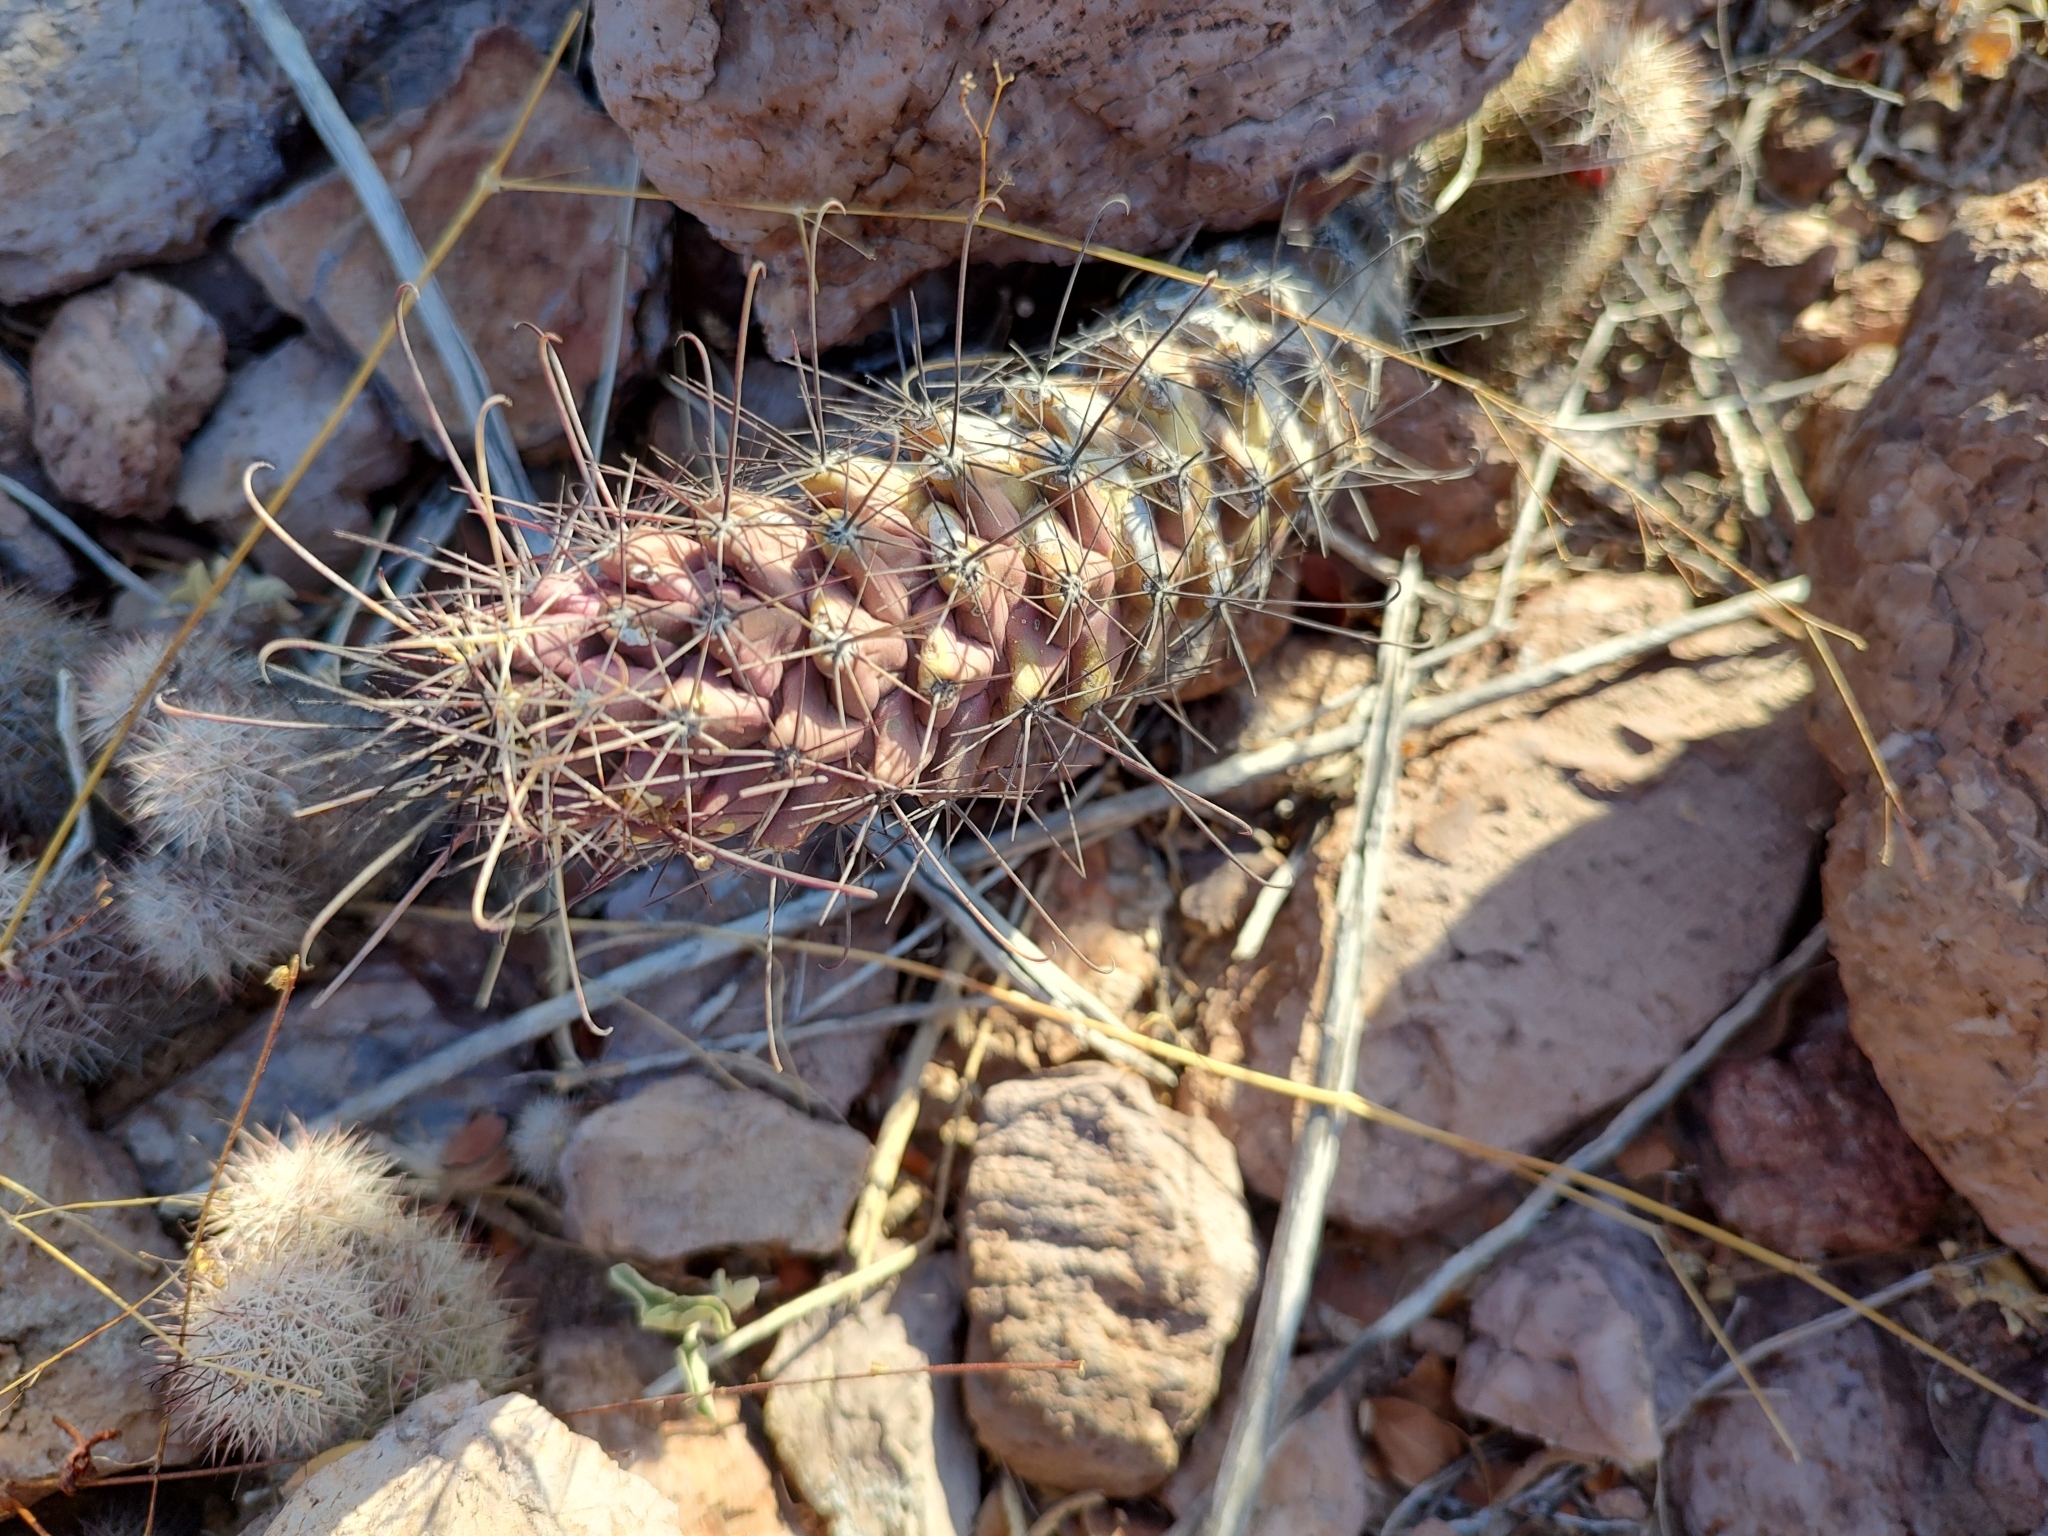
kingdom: Plantae
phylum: Tracheophyta
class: Magnoliopsida
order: Caryophyllales
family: Cactaceae
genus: Cochemiea
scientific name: Cochemiea poselgeri
